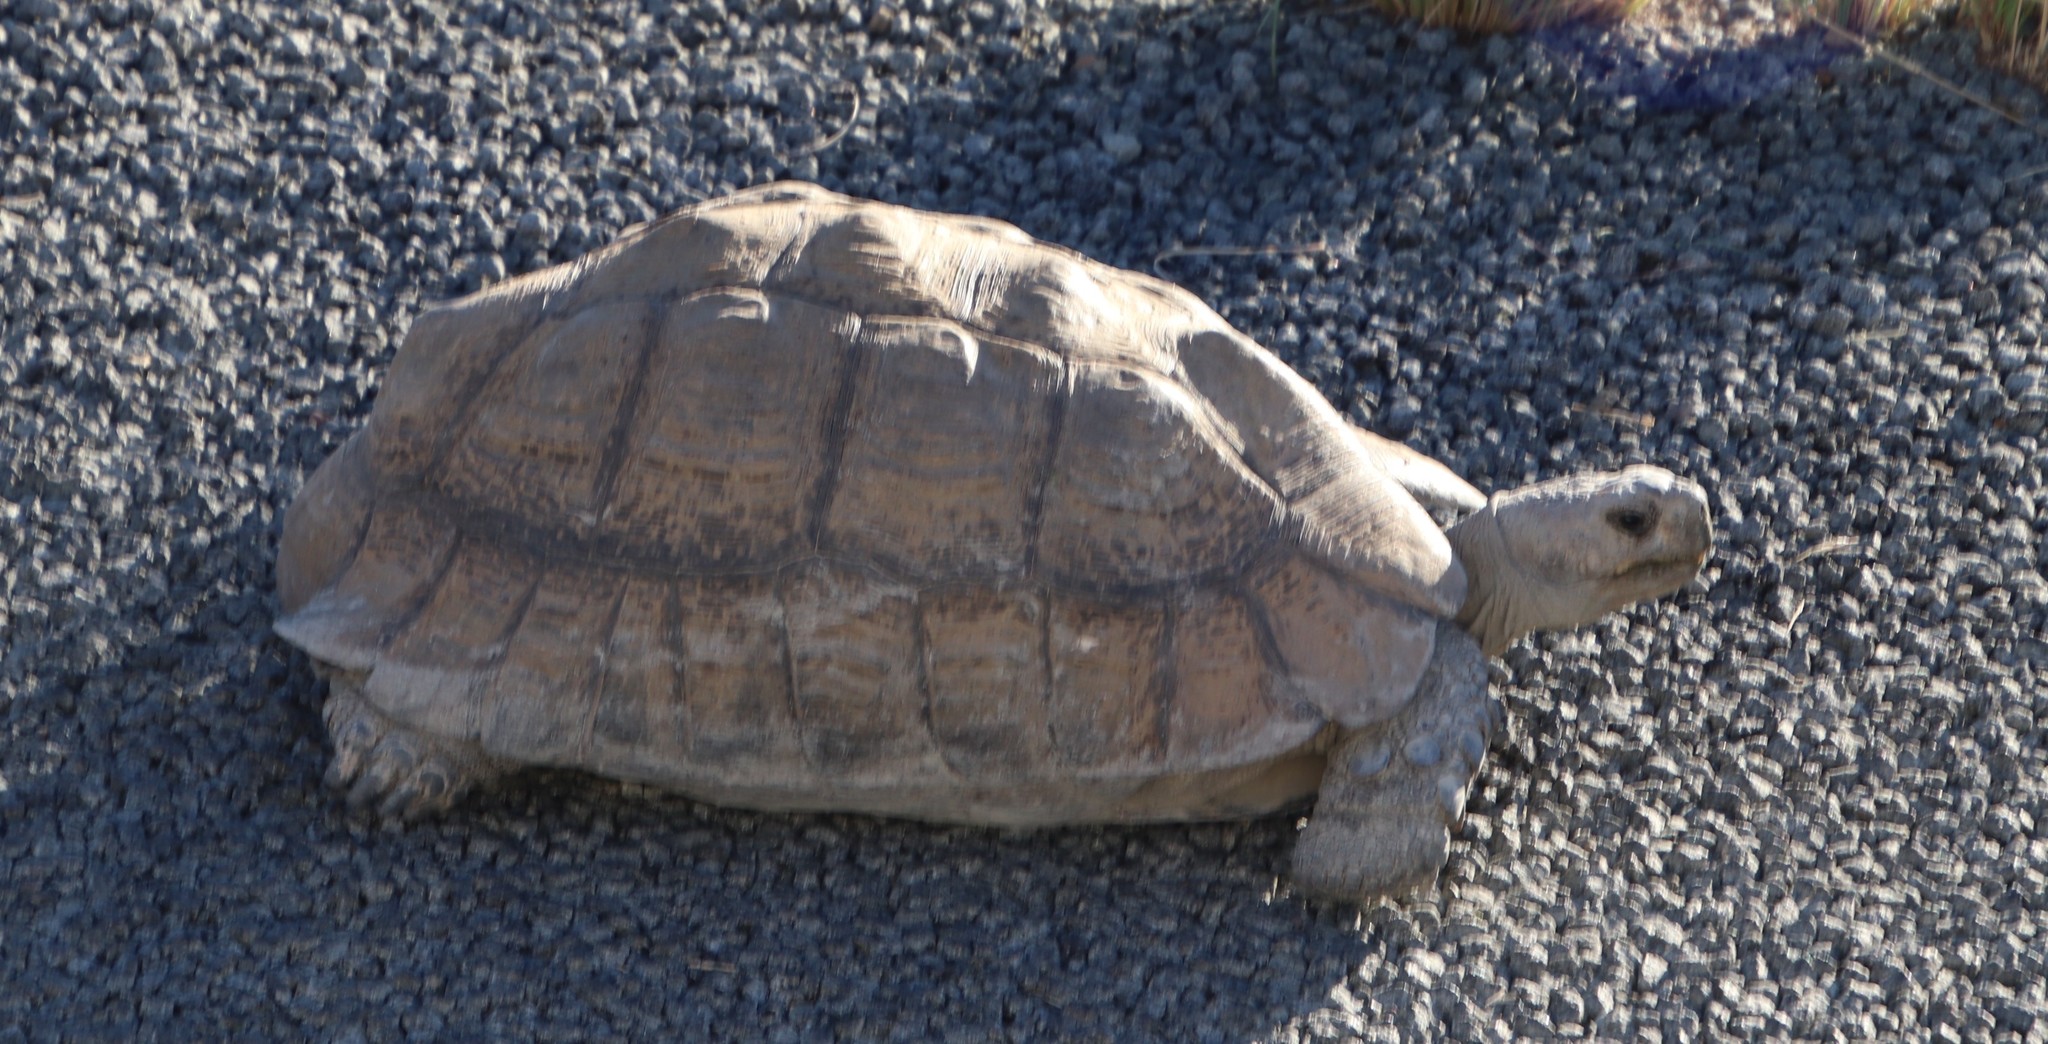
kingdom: Animalia
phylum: Chordata
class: Testudines
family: Testudinidae
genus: Stigmochelys
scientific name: Stigmochelys pardalis
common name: Leopard tortoise
